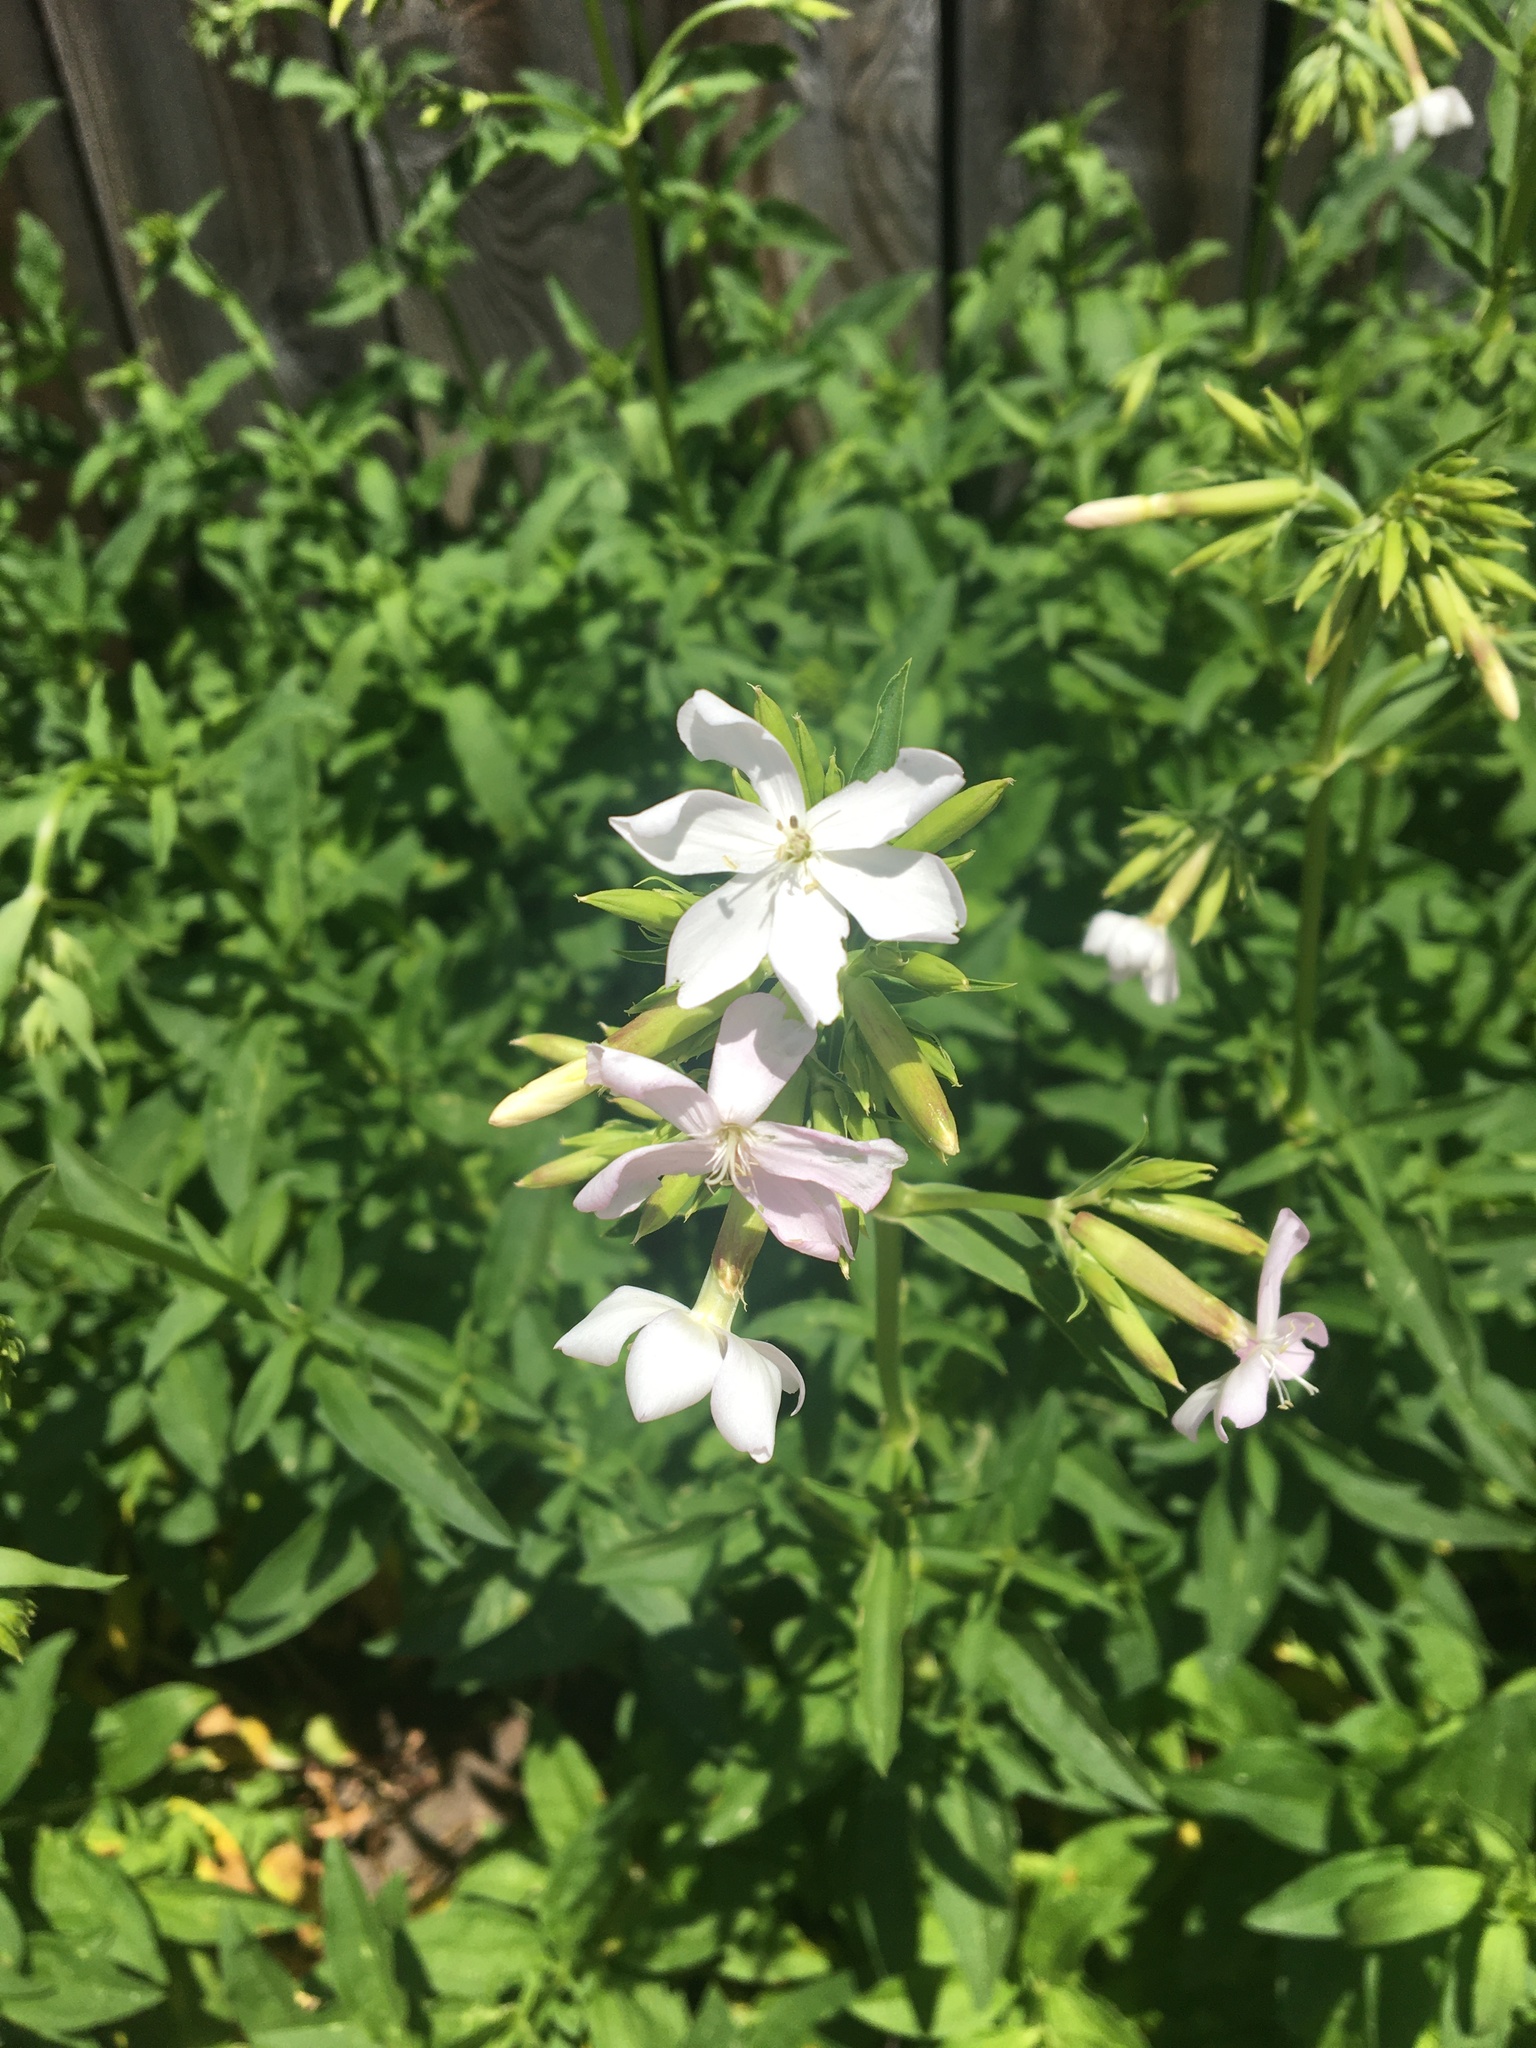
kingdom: Plantae
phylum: Tracheophyta
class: Magnoliopsida
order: Caryophyllales
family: Caryophyllaceae
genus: Saponaria
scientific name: Saponaria officinalis
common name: Soapwort
